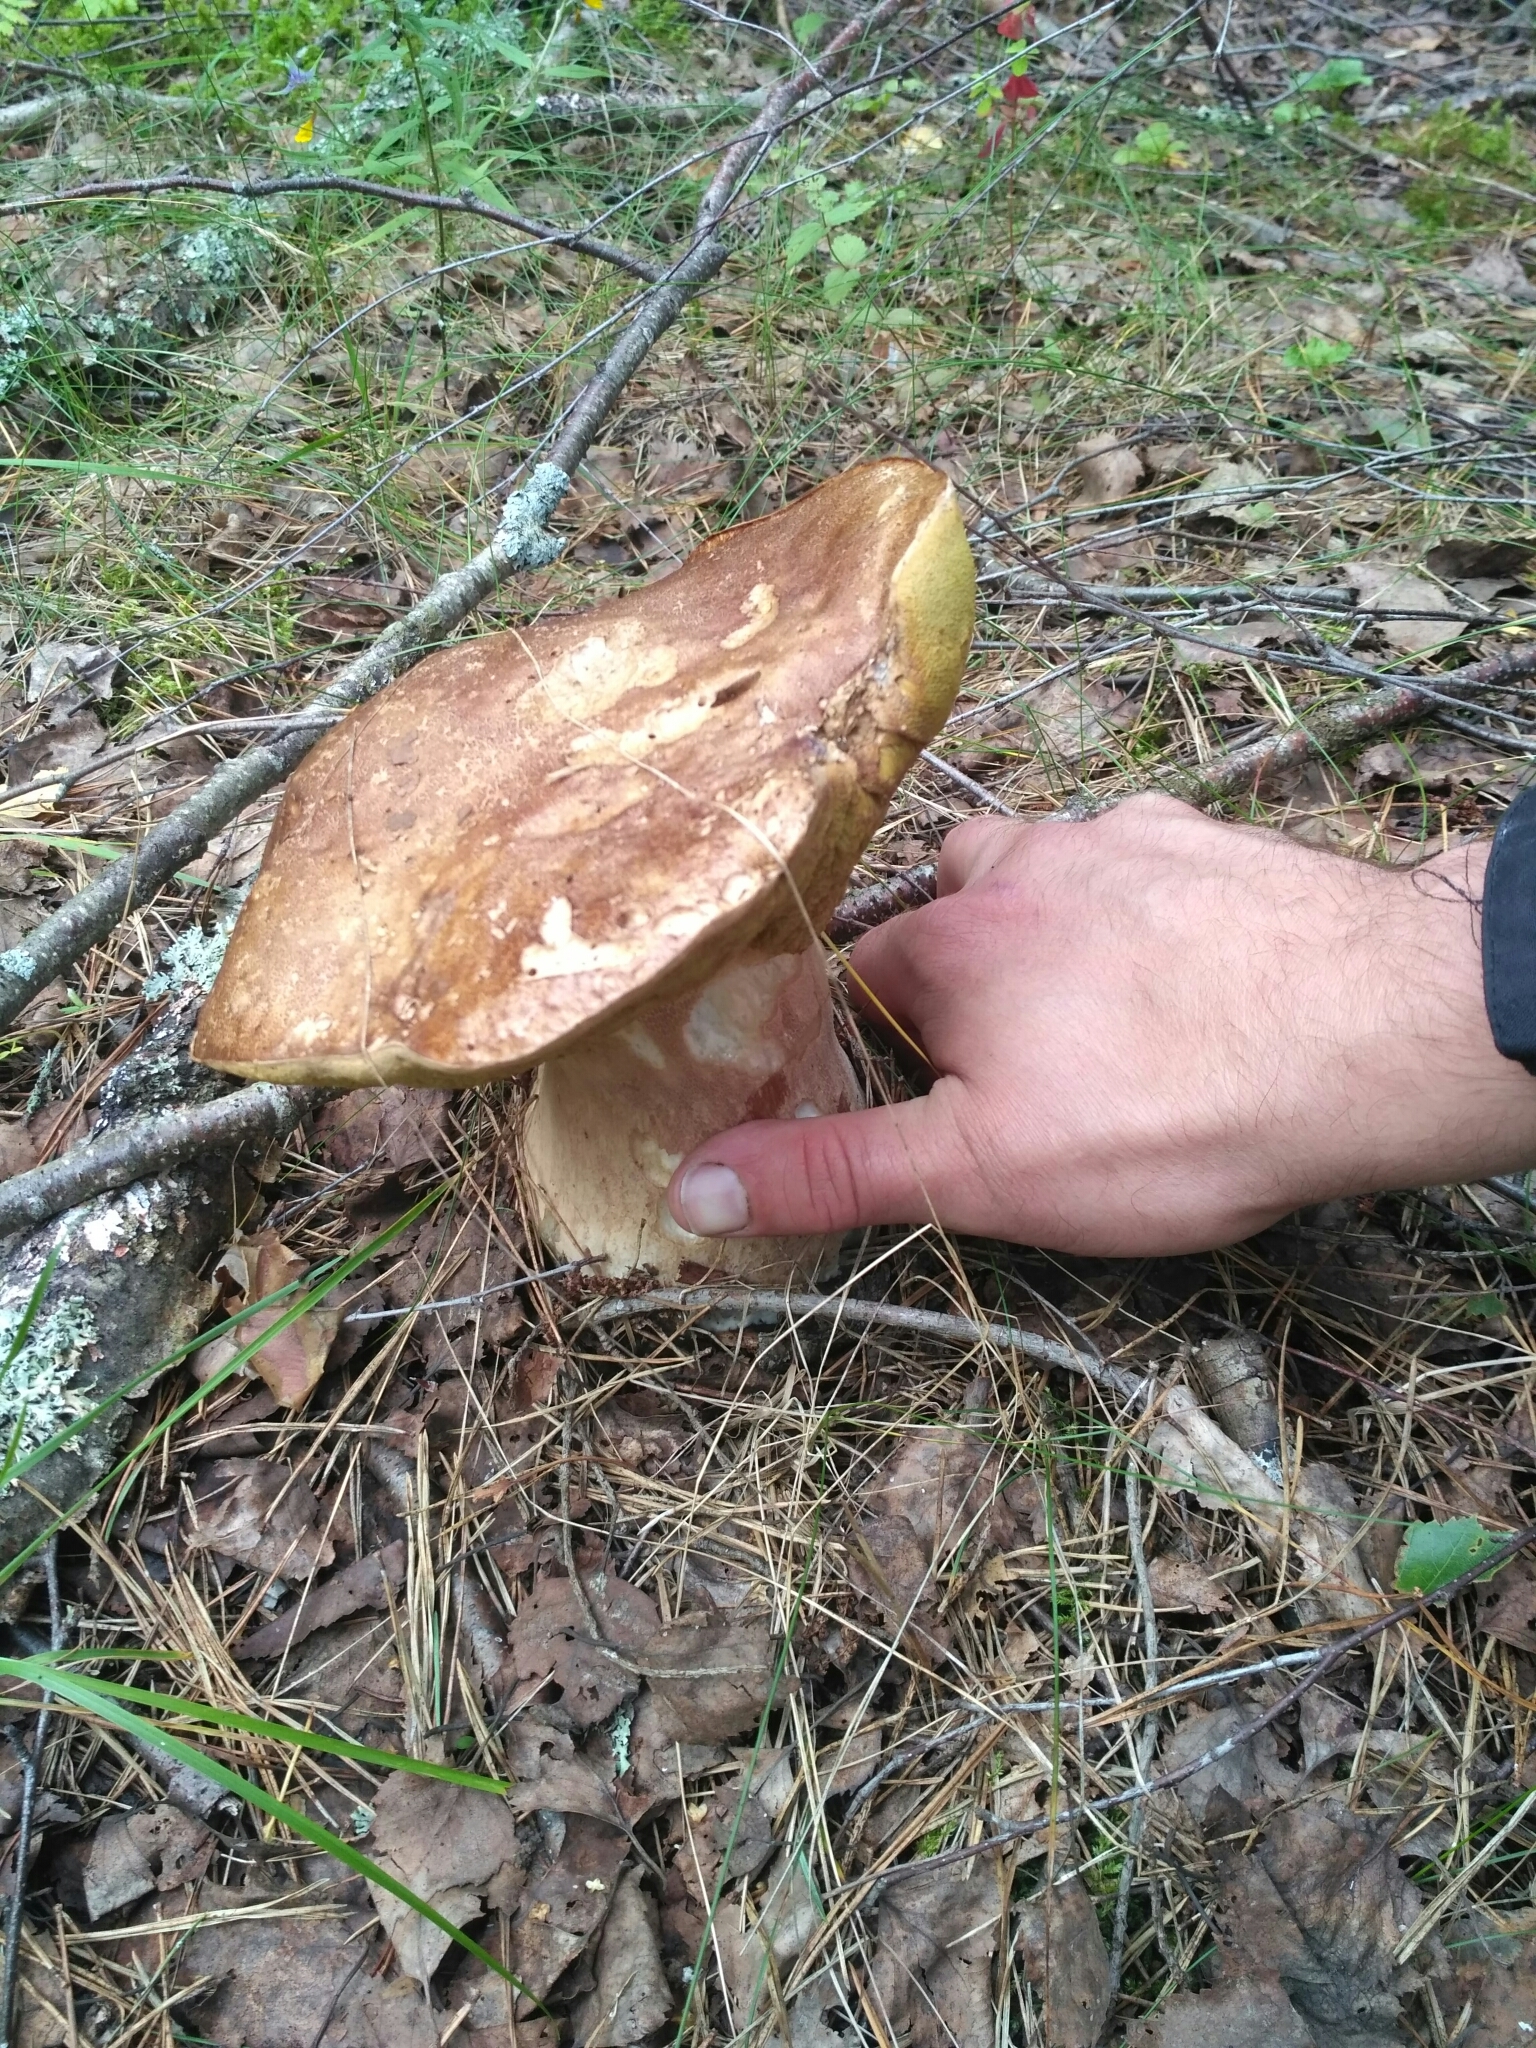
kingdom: Fungi
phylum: Basidiomycota
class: Agaricomycetes
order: Boletales
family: Boletaceae
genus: Boletus
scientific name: Boletus edulis
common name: Cep
